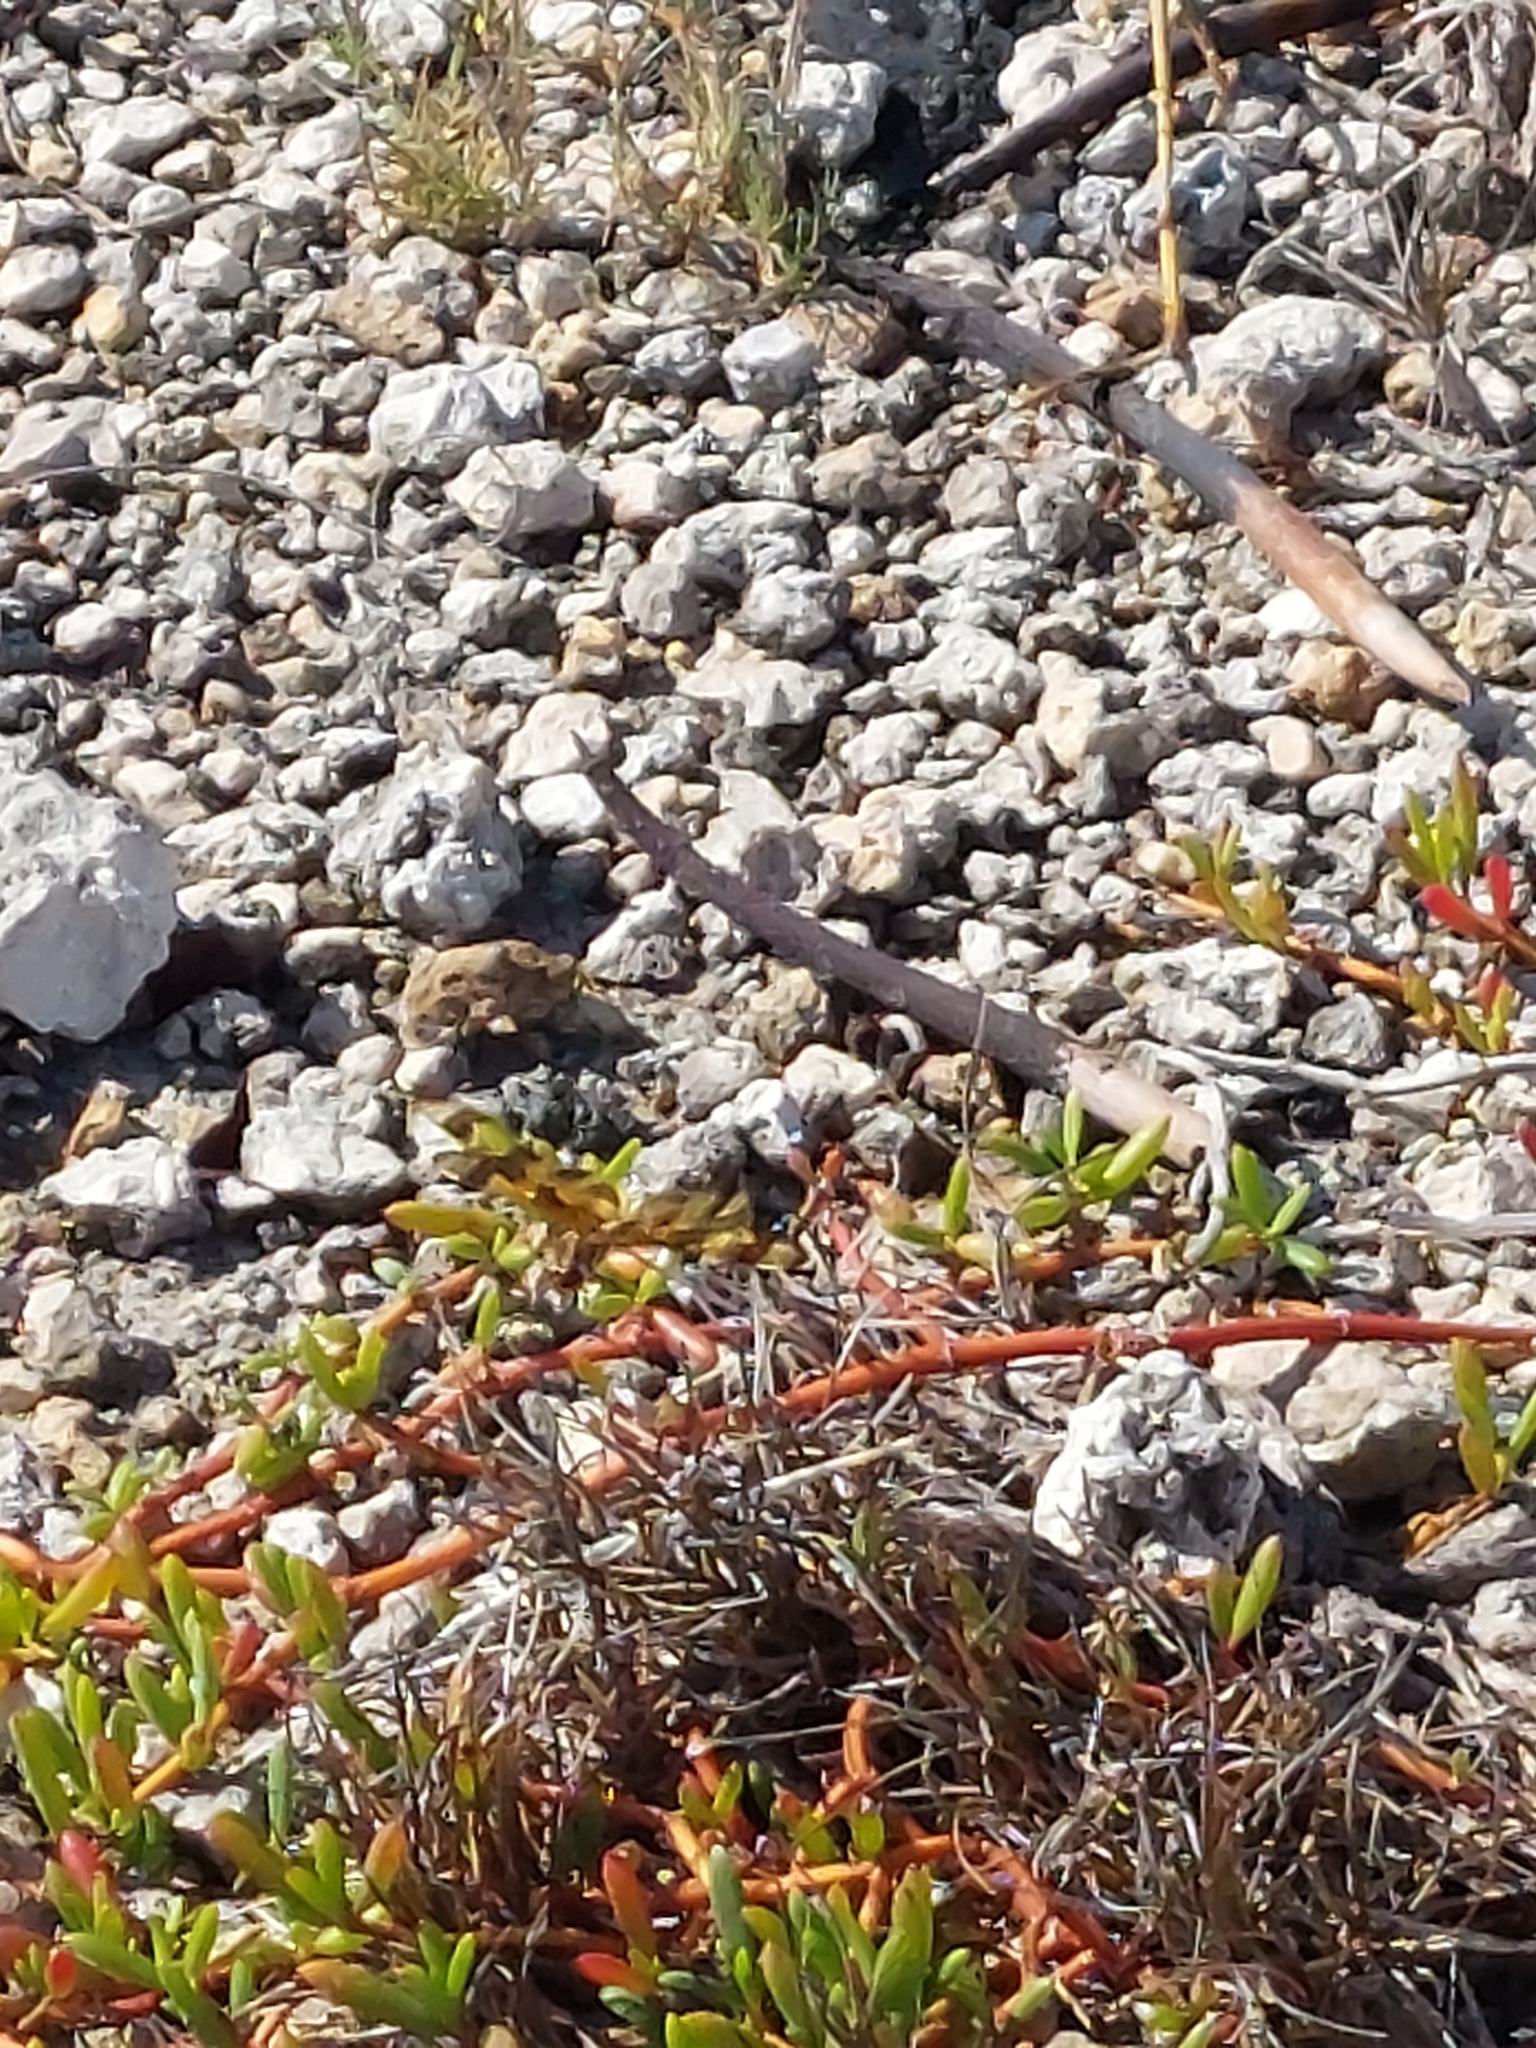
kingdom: Animalia
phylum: Arthropoda
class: Insecta
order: Odonata
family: Libellulidae
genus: Celithemis
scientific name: Celithemis eponina
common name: Halloween pennant
